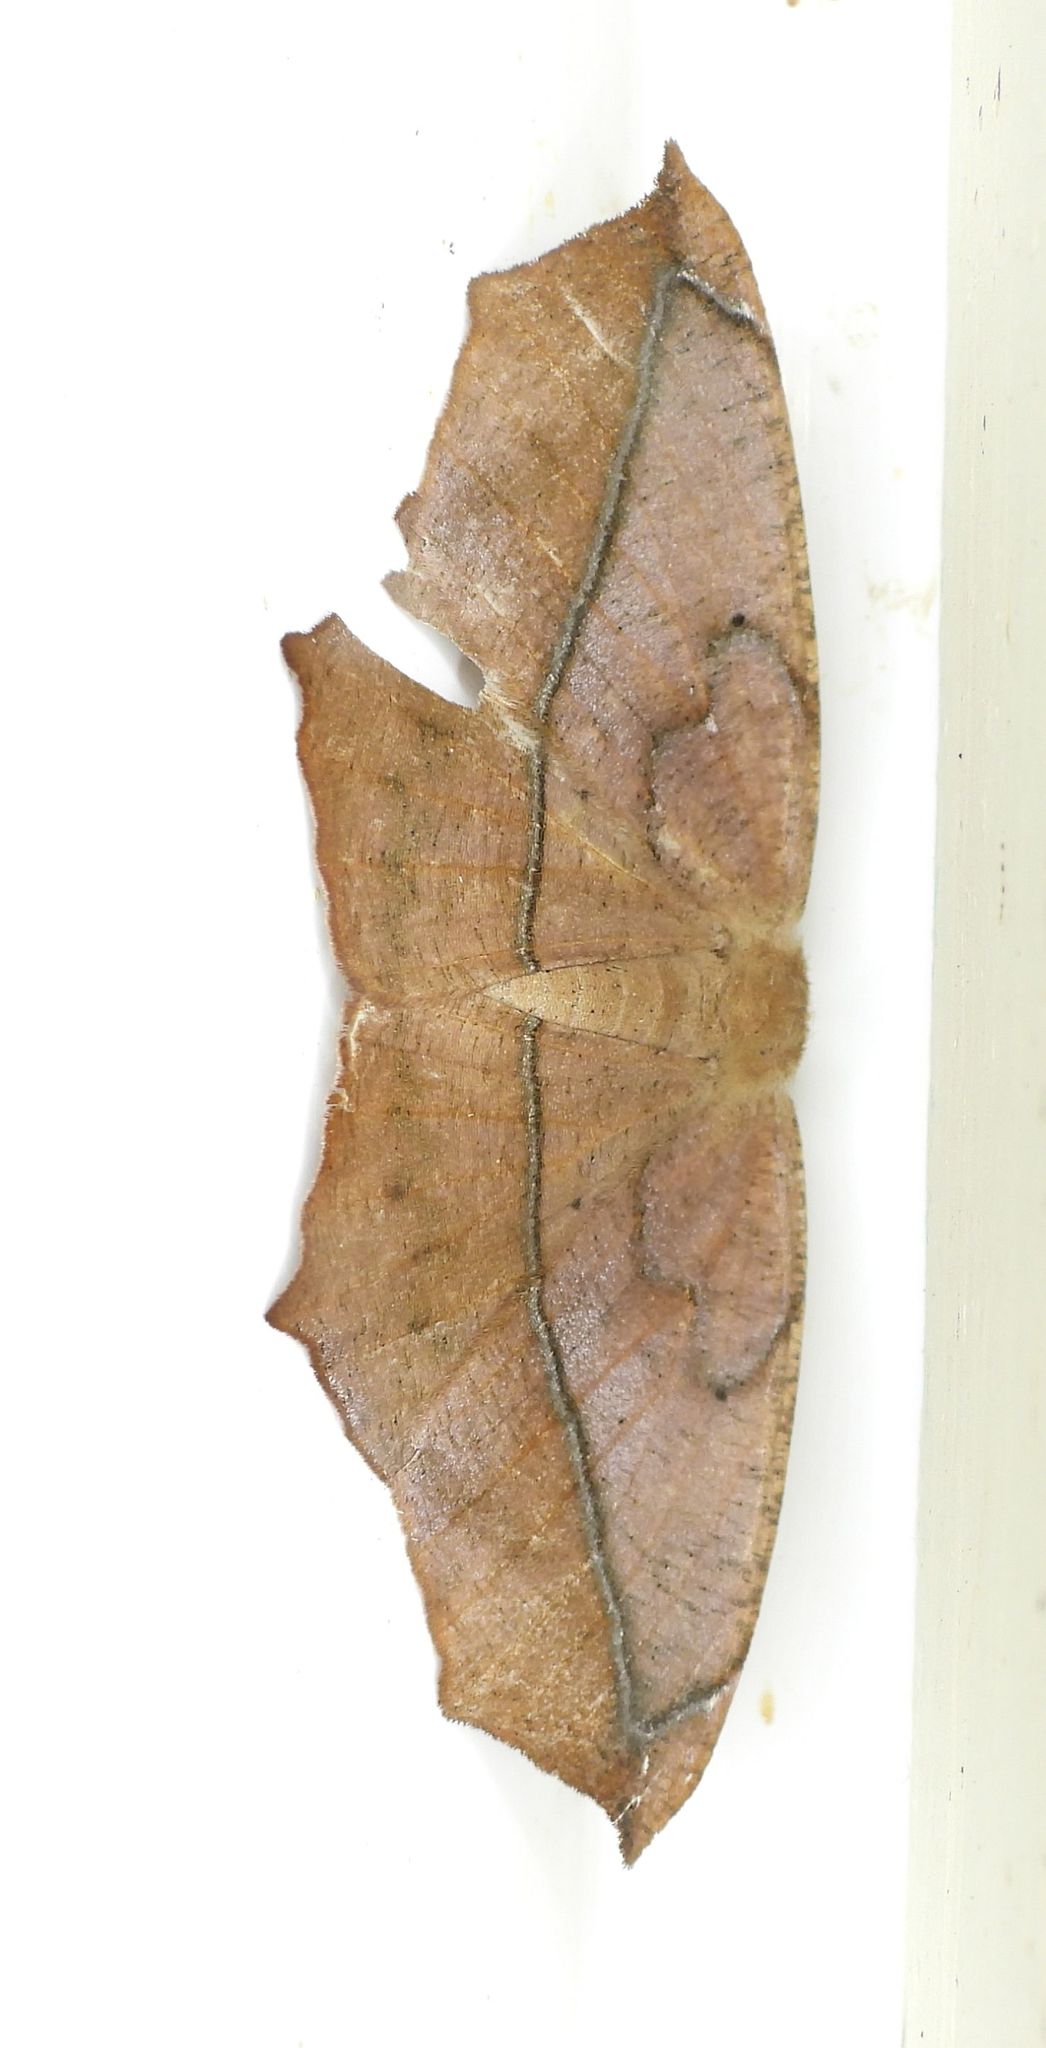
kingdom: Animalia
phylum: Arthropoda
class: Insecta
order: Lepidoptera
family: Geometridae
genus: Prochoerodes
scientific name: Prochoerodes lineola
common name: Large maple spanworm
